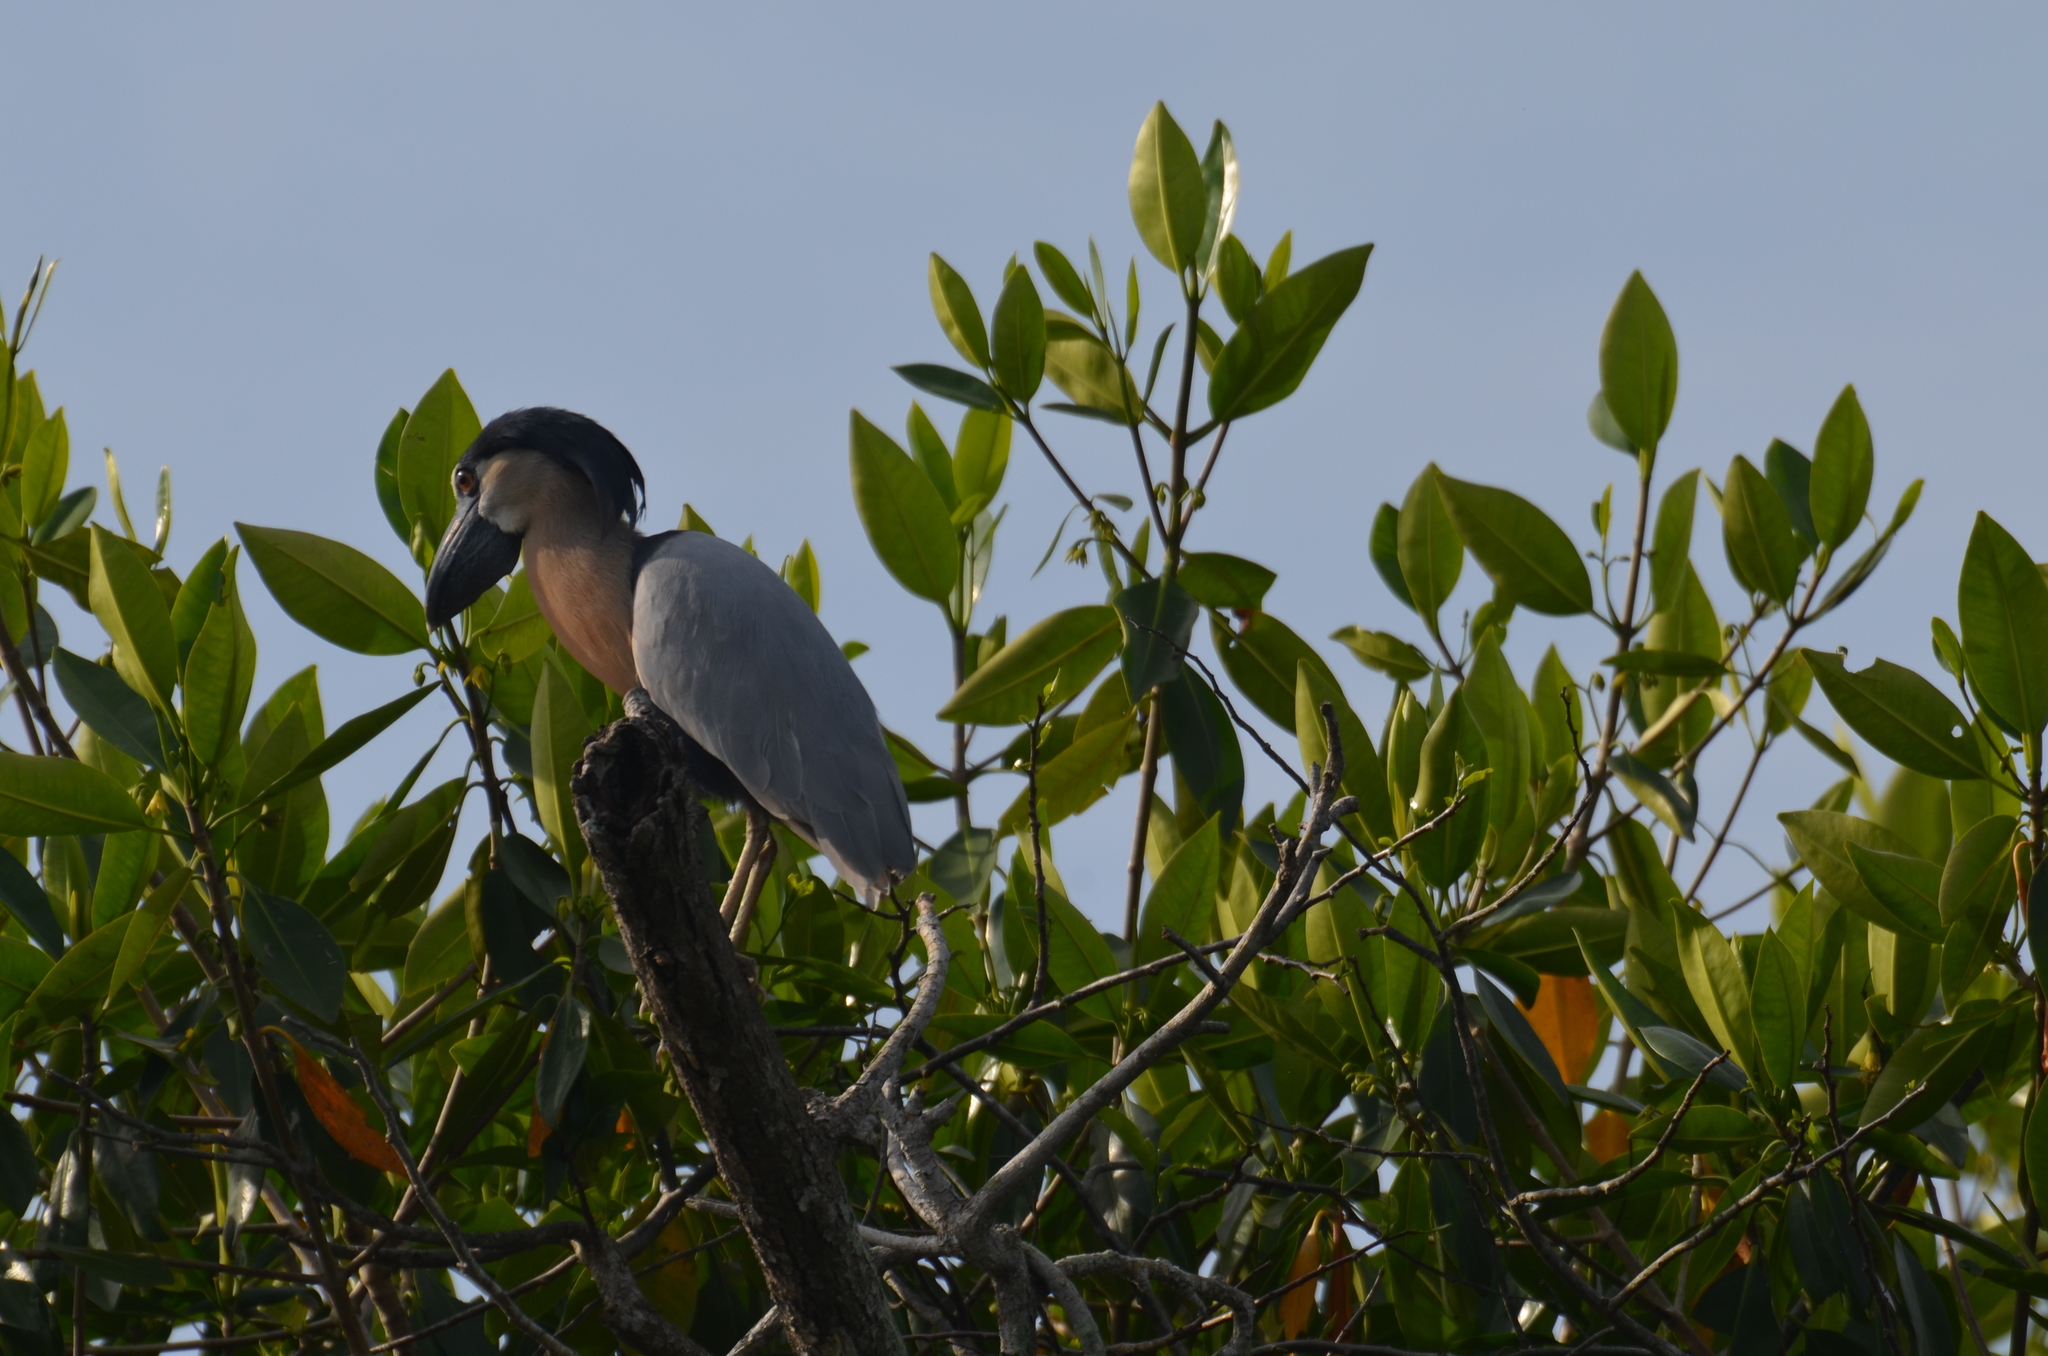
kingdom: Animalia
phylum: Chordata
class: Aves
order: Pelecaniformes
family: Ardeidae
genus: Cochlearius
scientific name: Cochlearius cochlearius
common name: Boat-billed heron
